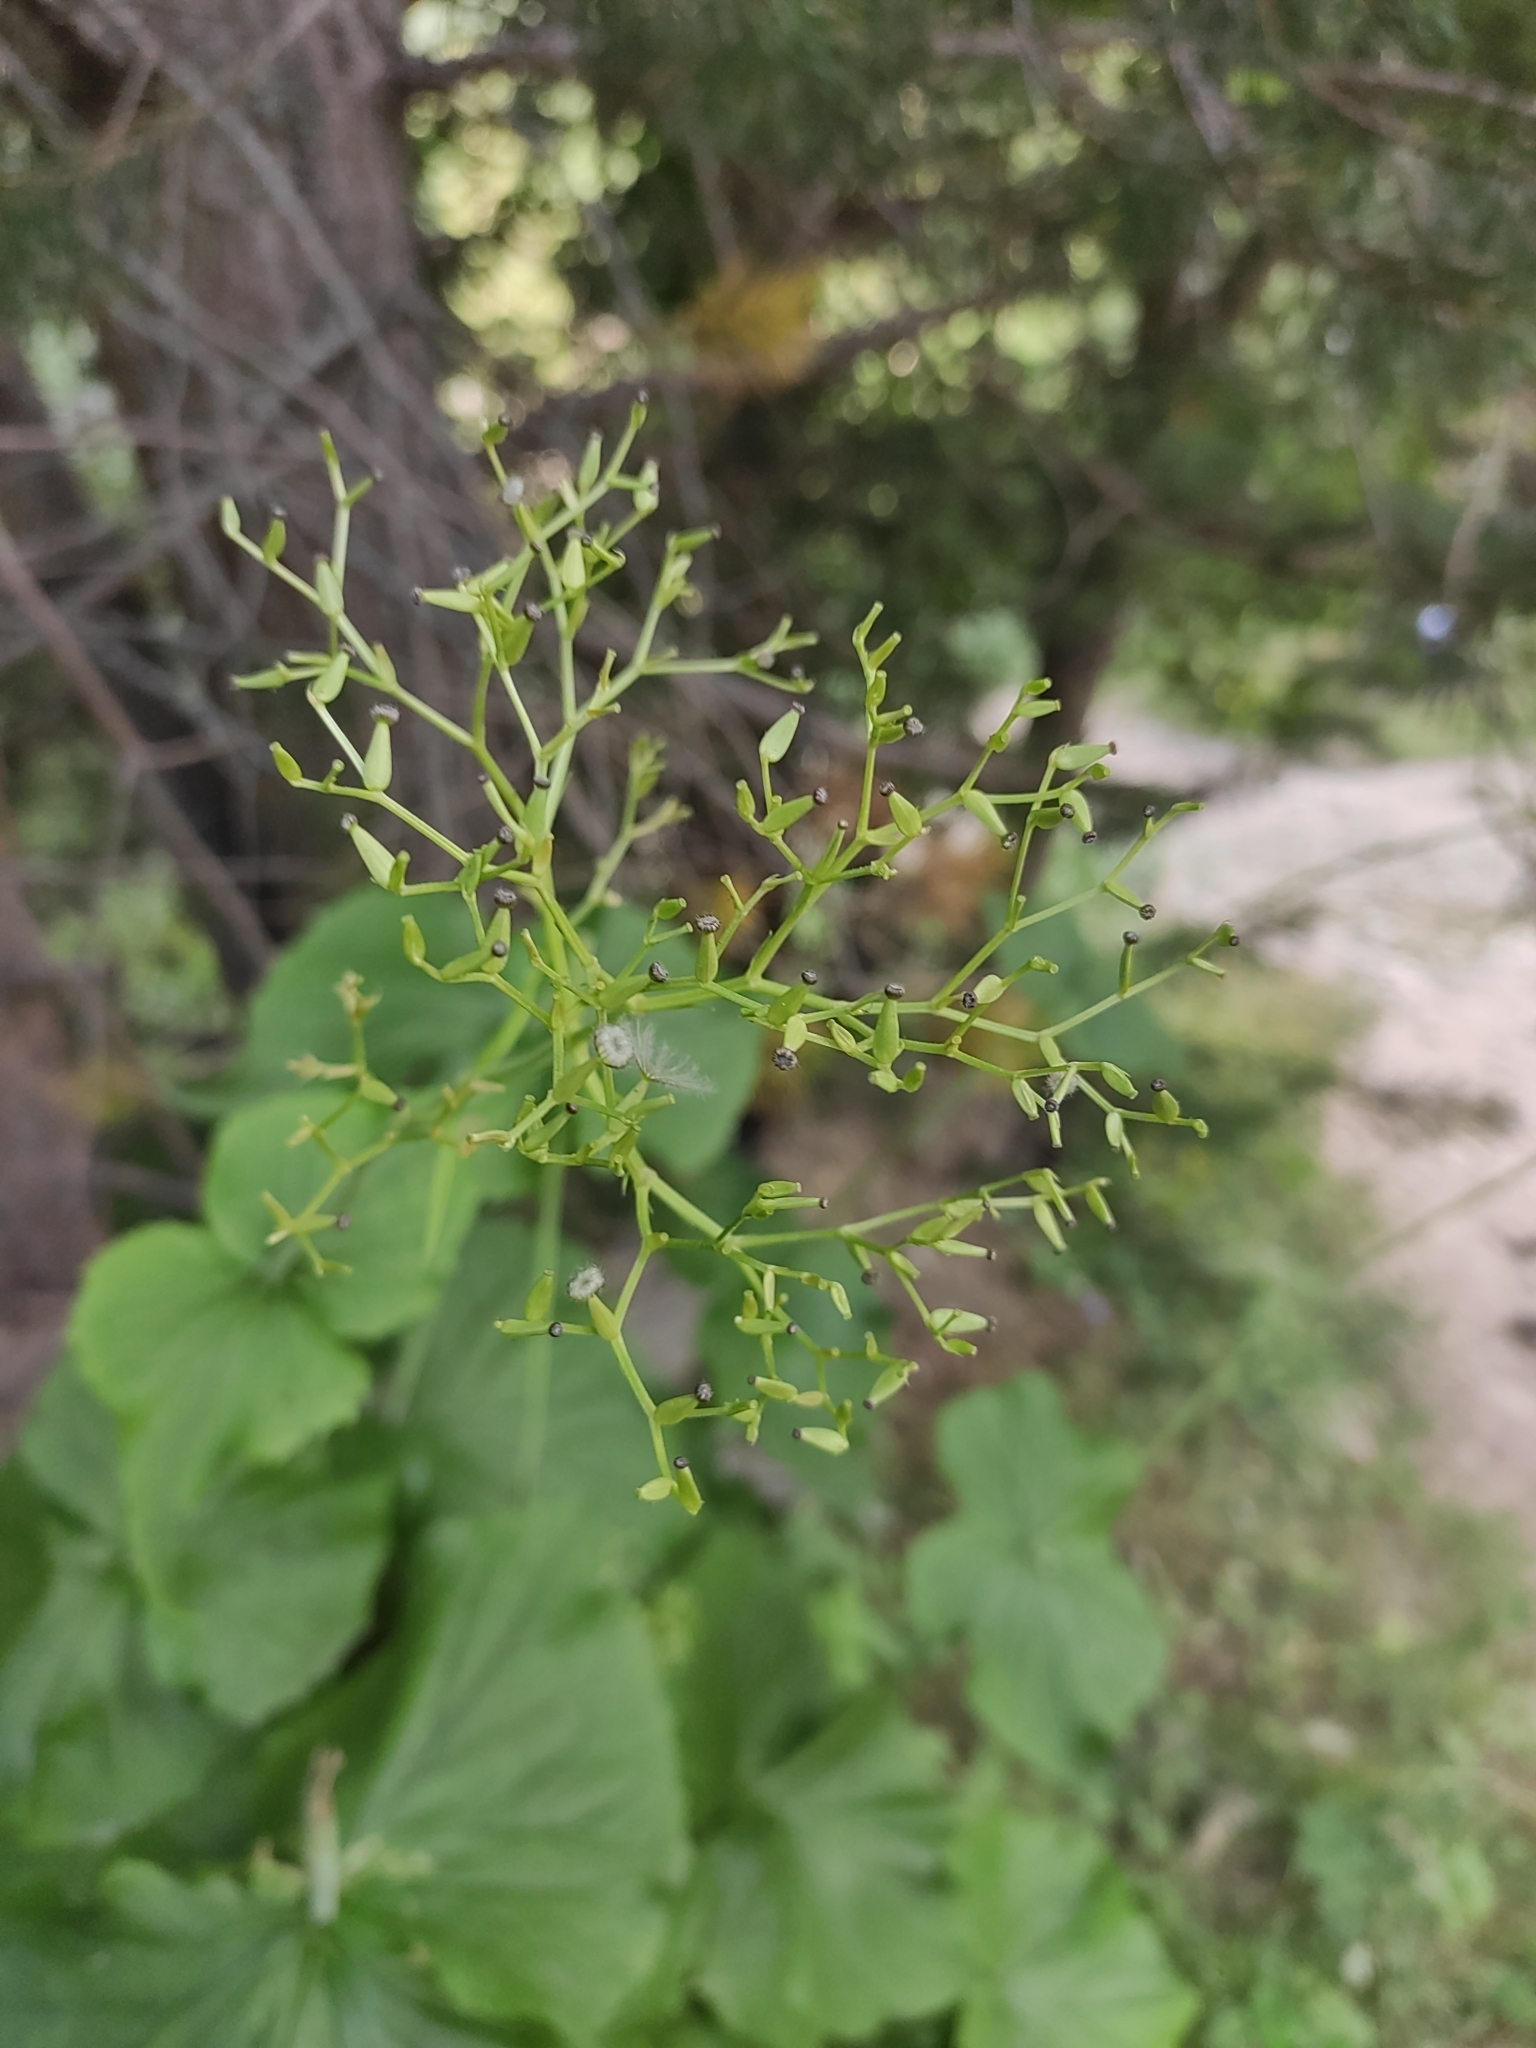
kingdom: Plantae
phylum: Tracheophyta
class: Magnoliopsida
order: Dipsacales
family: Caprifoliaceae
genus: Valeriana
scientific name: Valeriana alliariifolia
